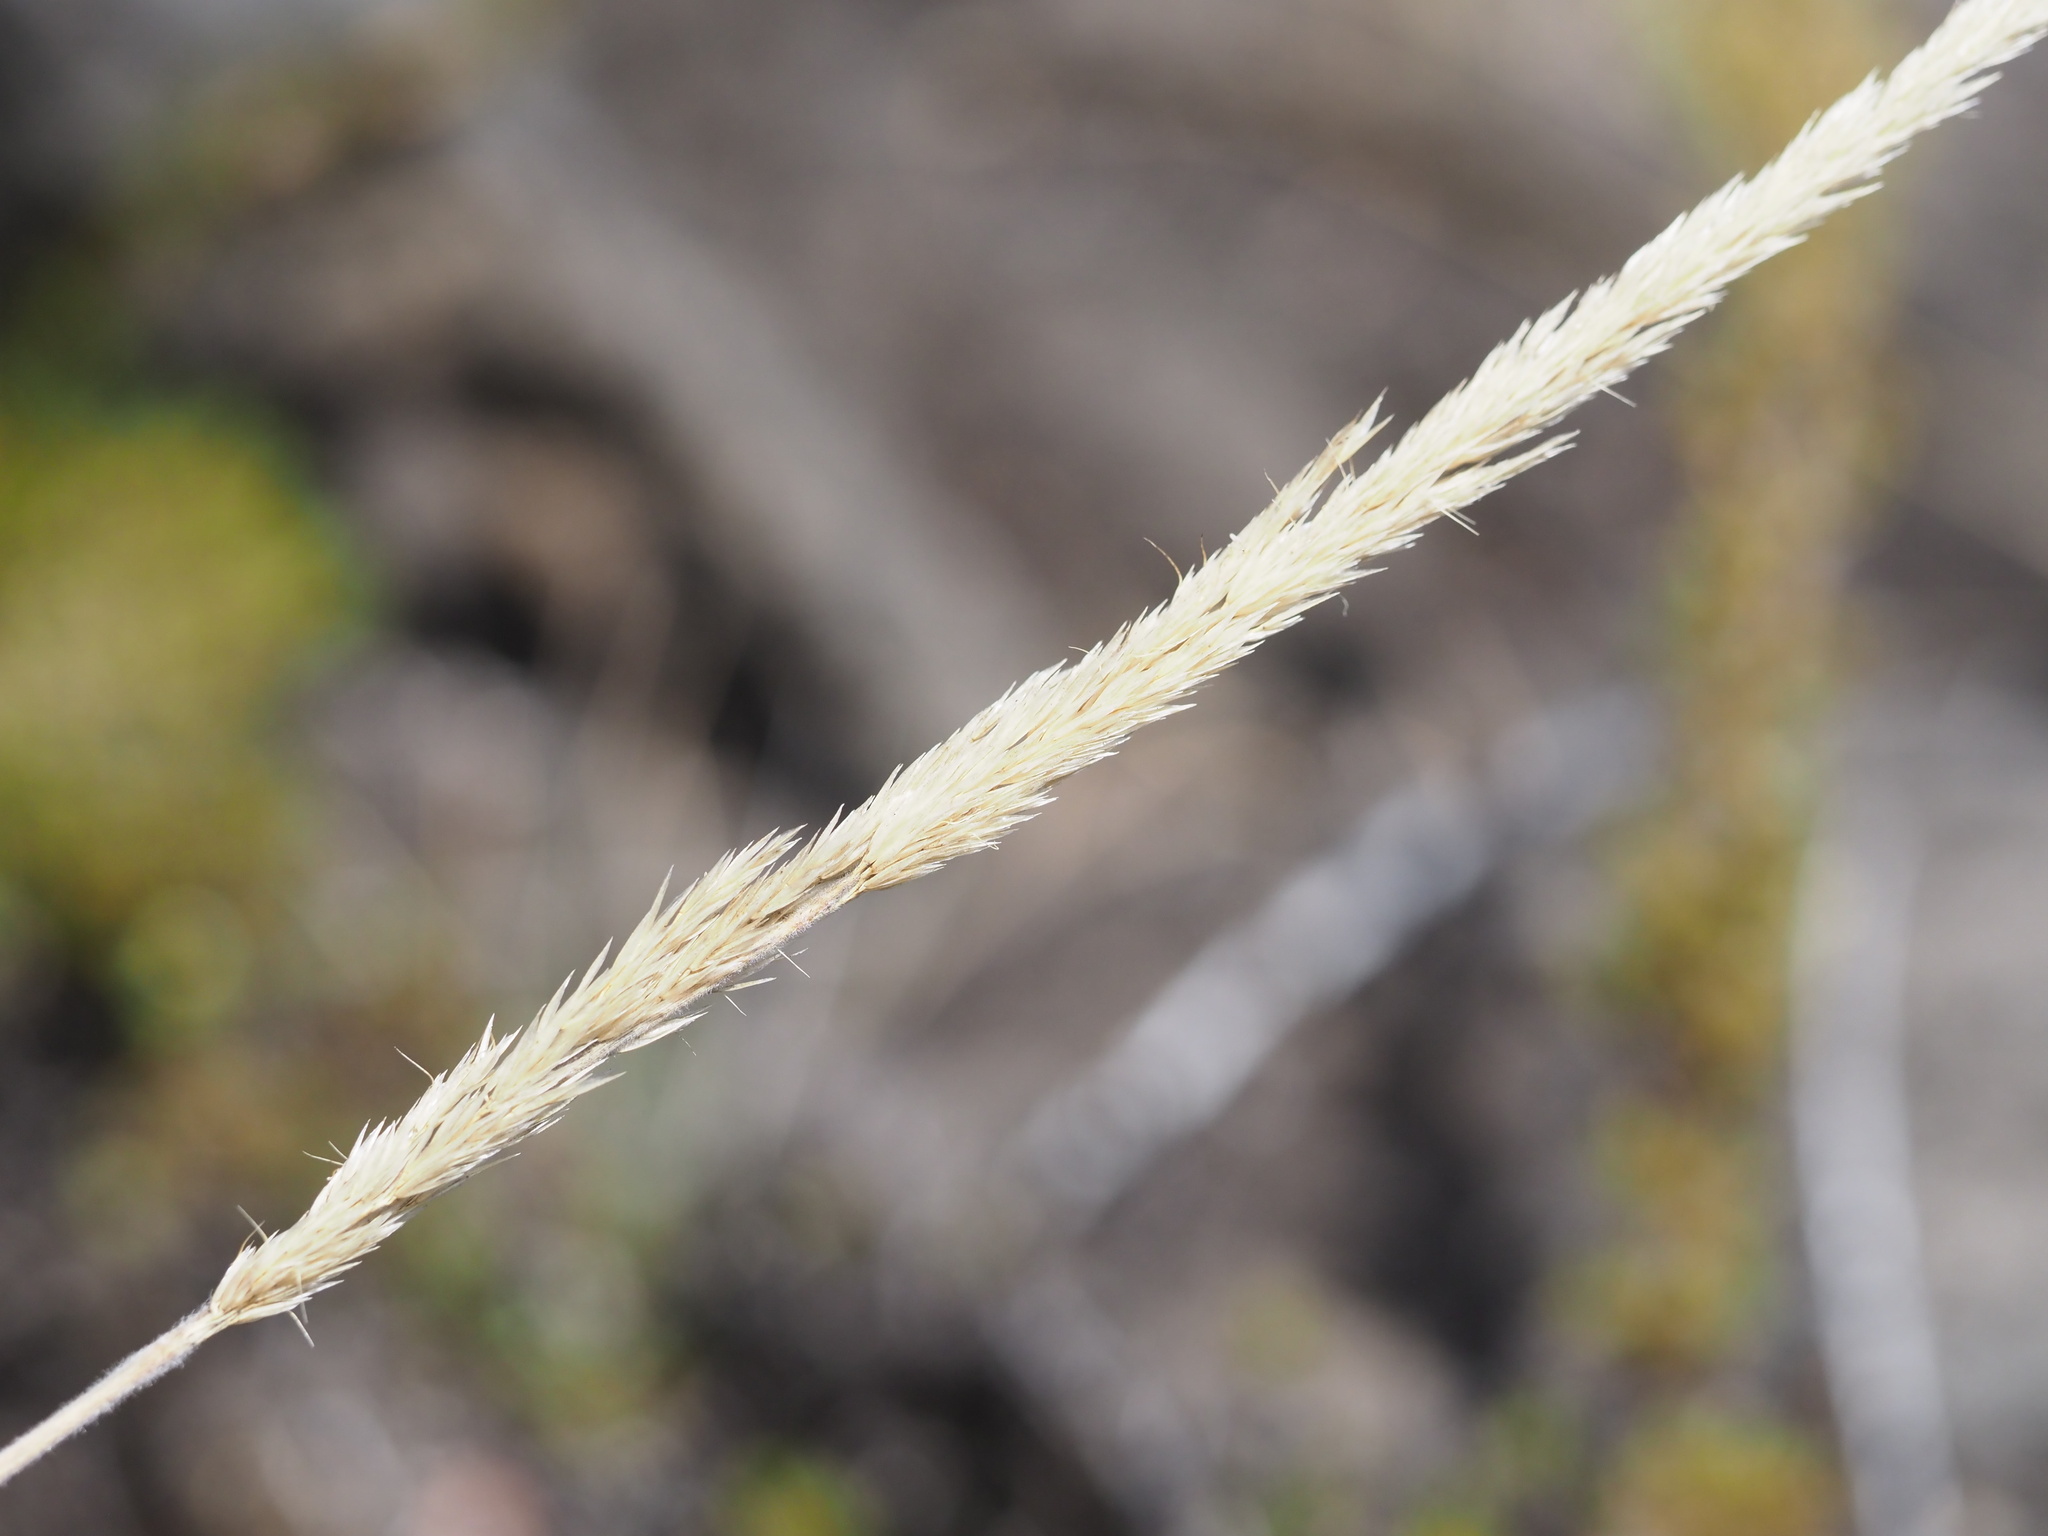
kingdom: Plantae
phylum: Tracheophyta
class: Liliopsida
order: Poales
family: Poaceae
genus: Trisetum
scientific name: Trisetum glomeratum
